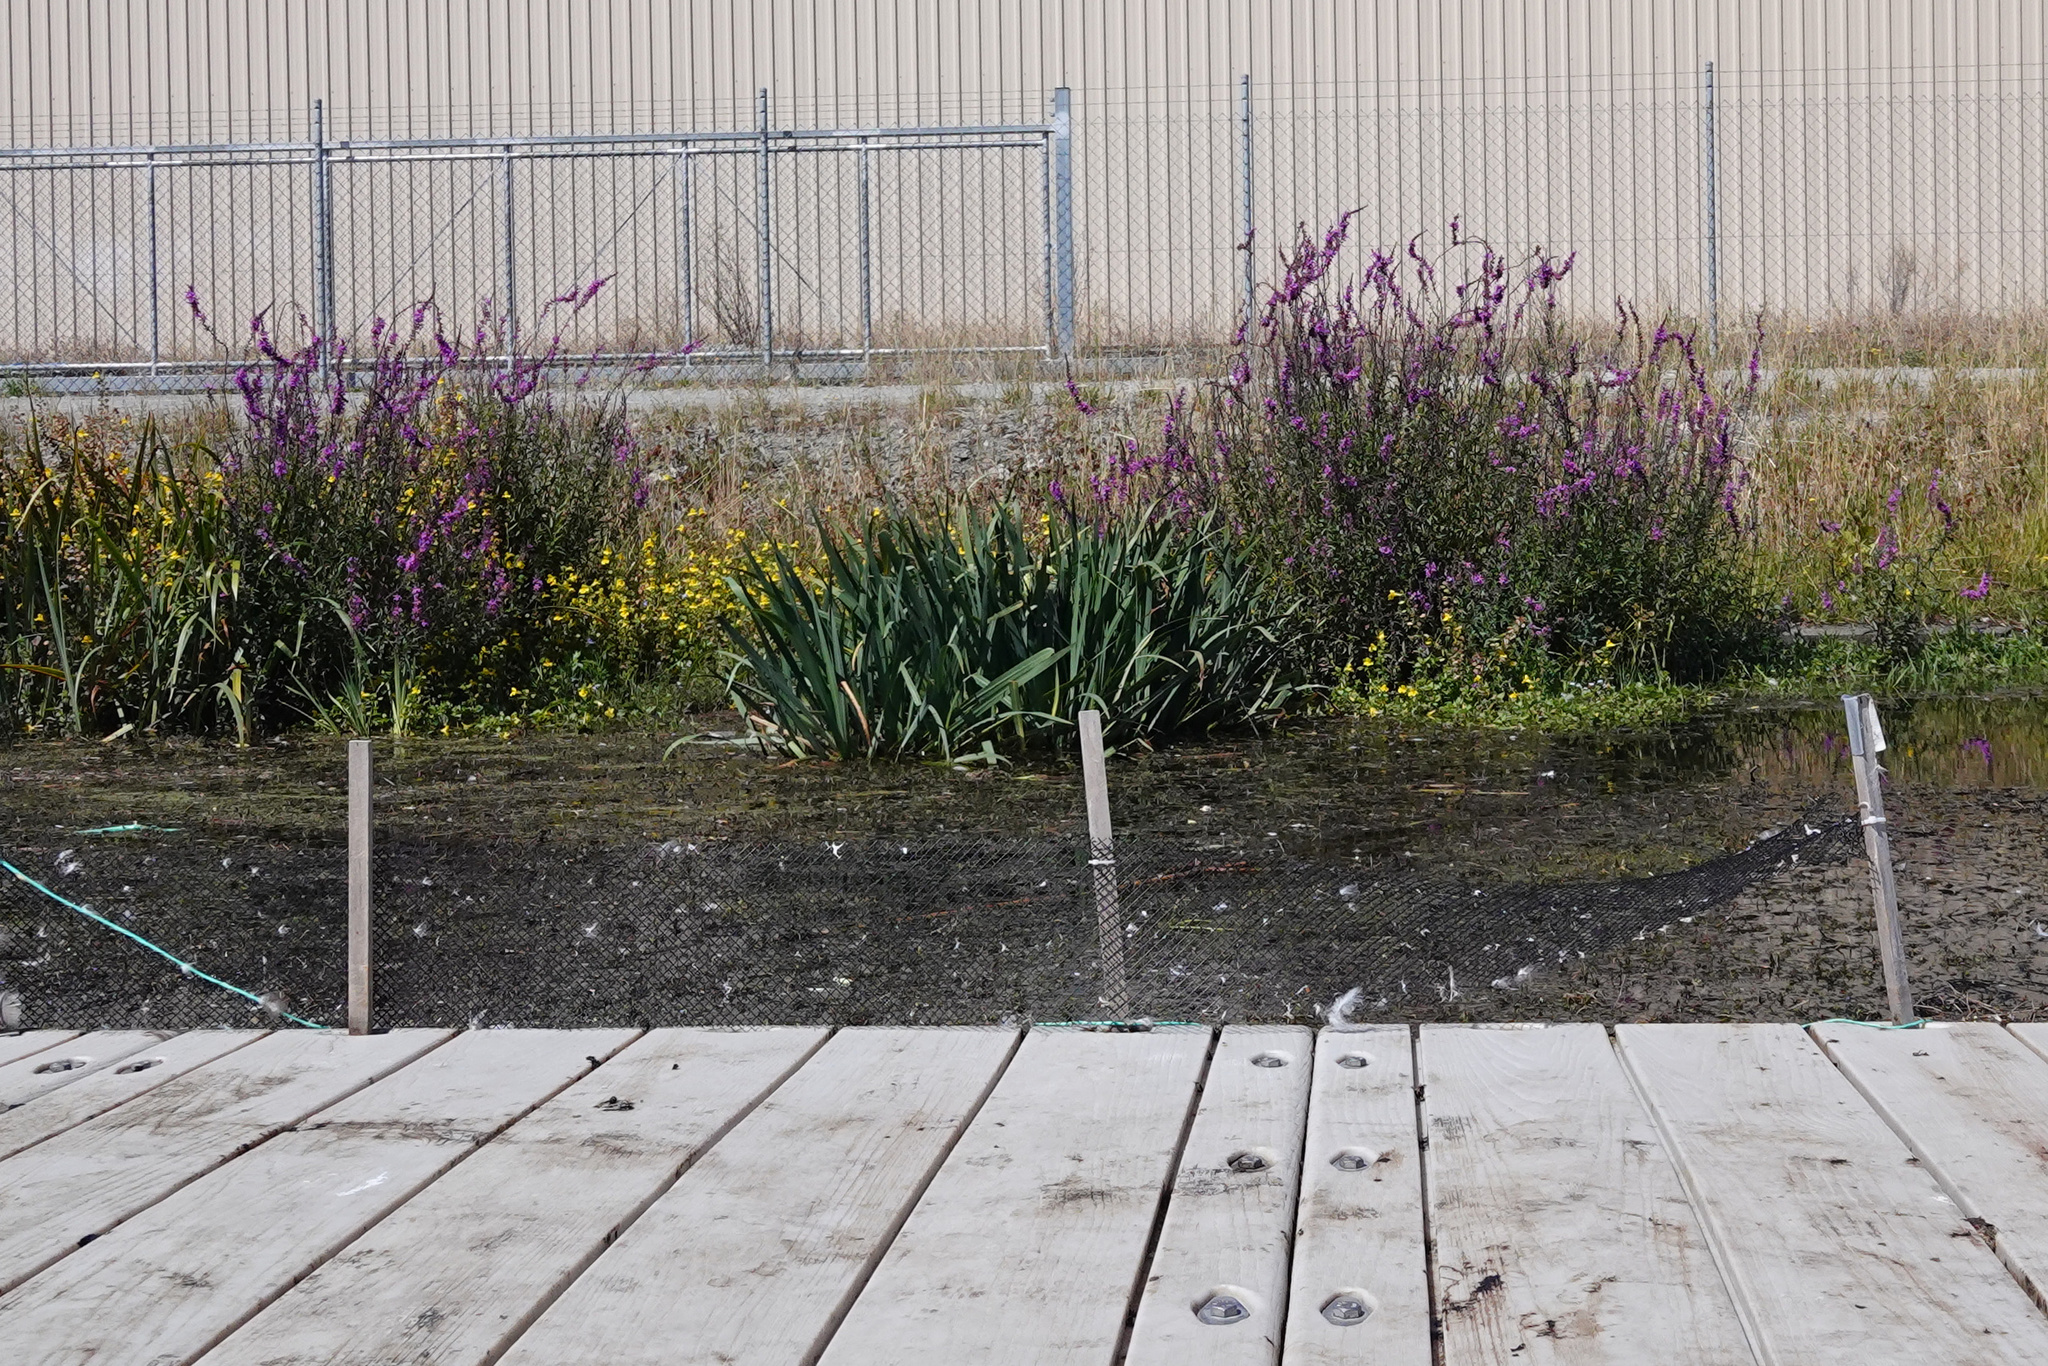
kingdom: Plantae
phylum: Tracheophyta
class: Magnoliopsida
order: Myrtales
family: Lythraceae
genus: Lythrum
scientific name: Lythrum salicaria
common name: Purple loosestrife
